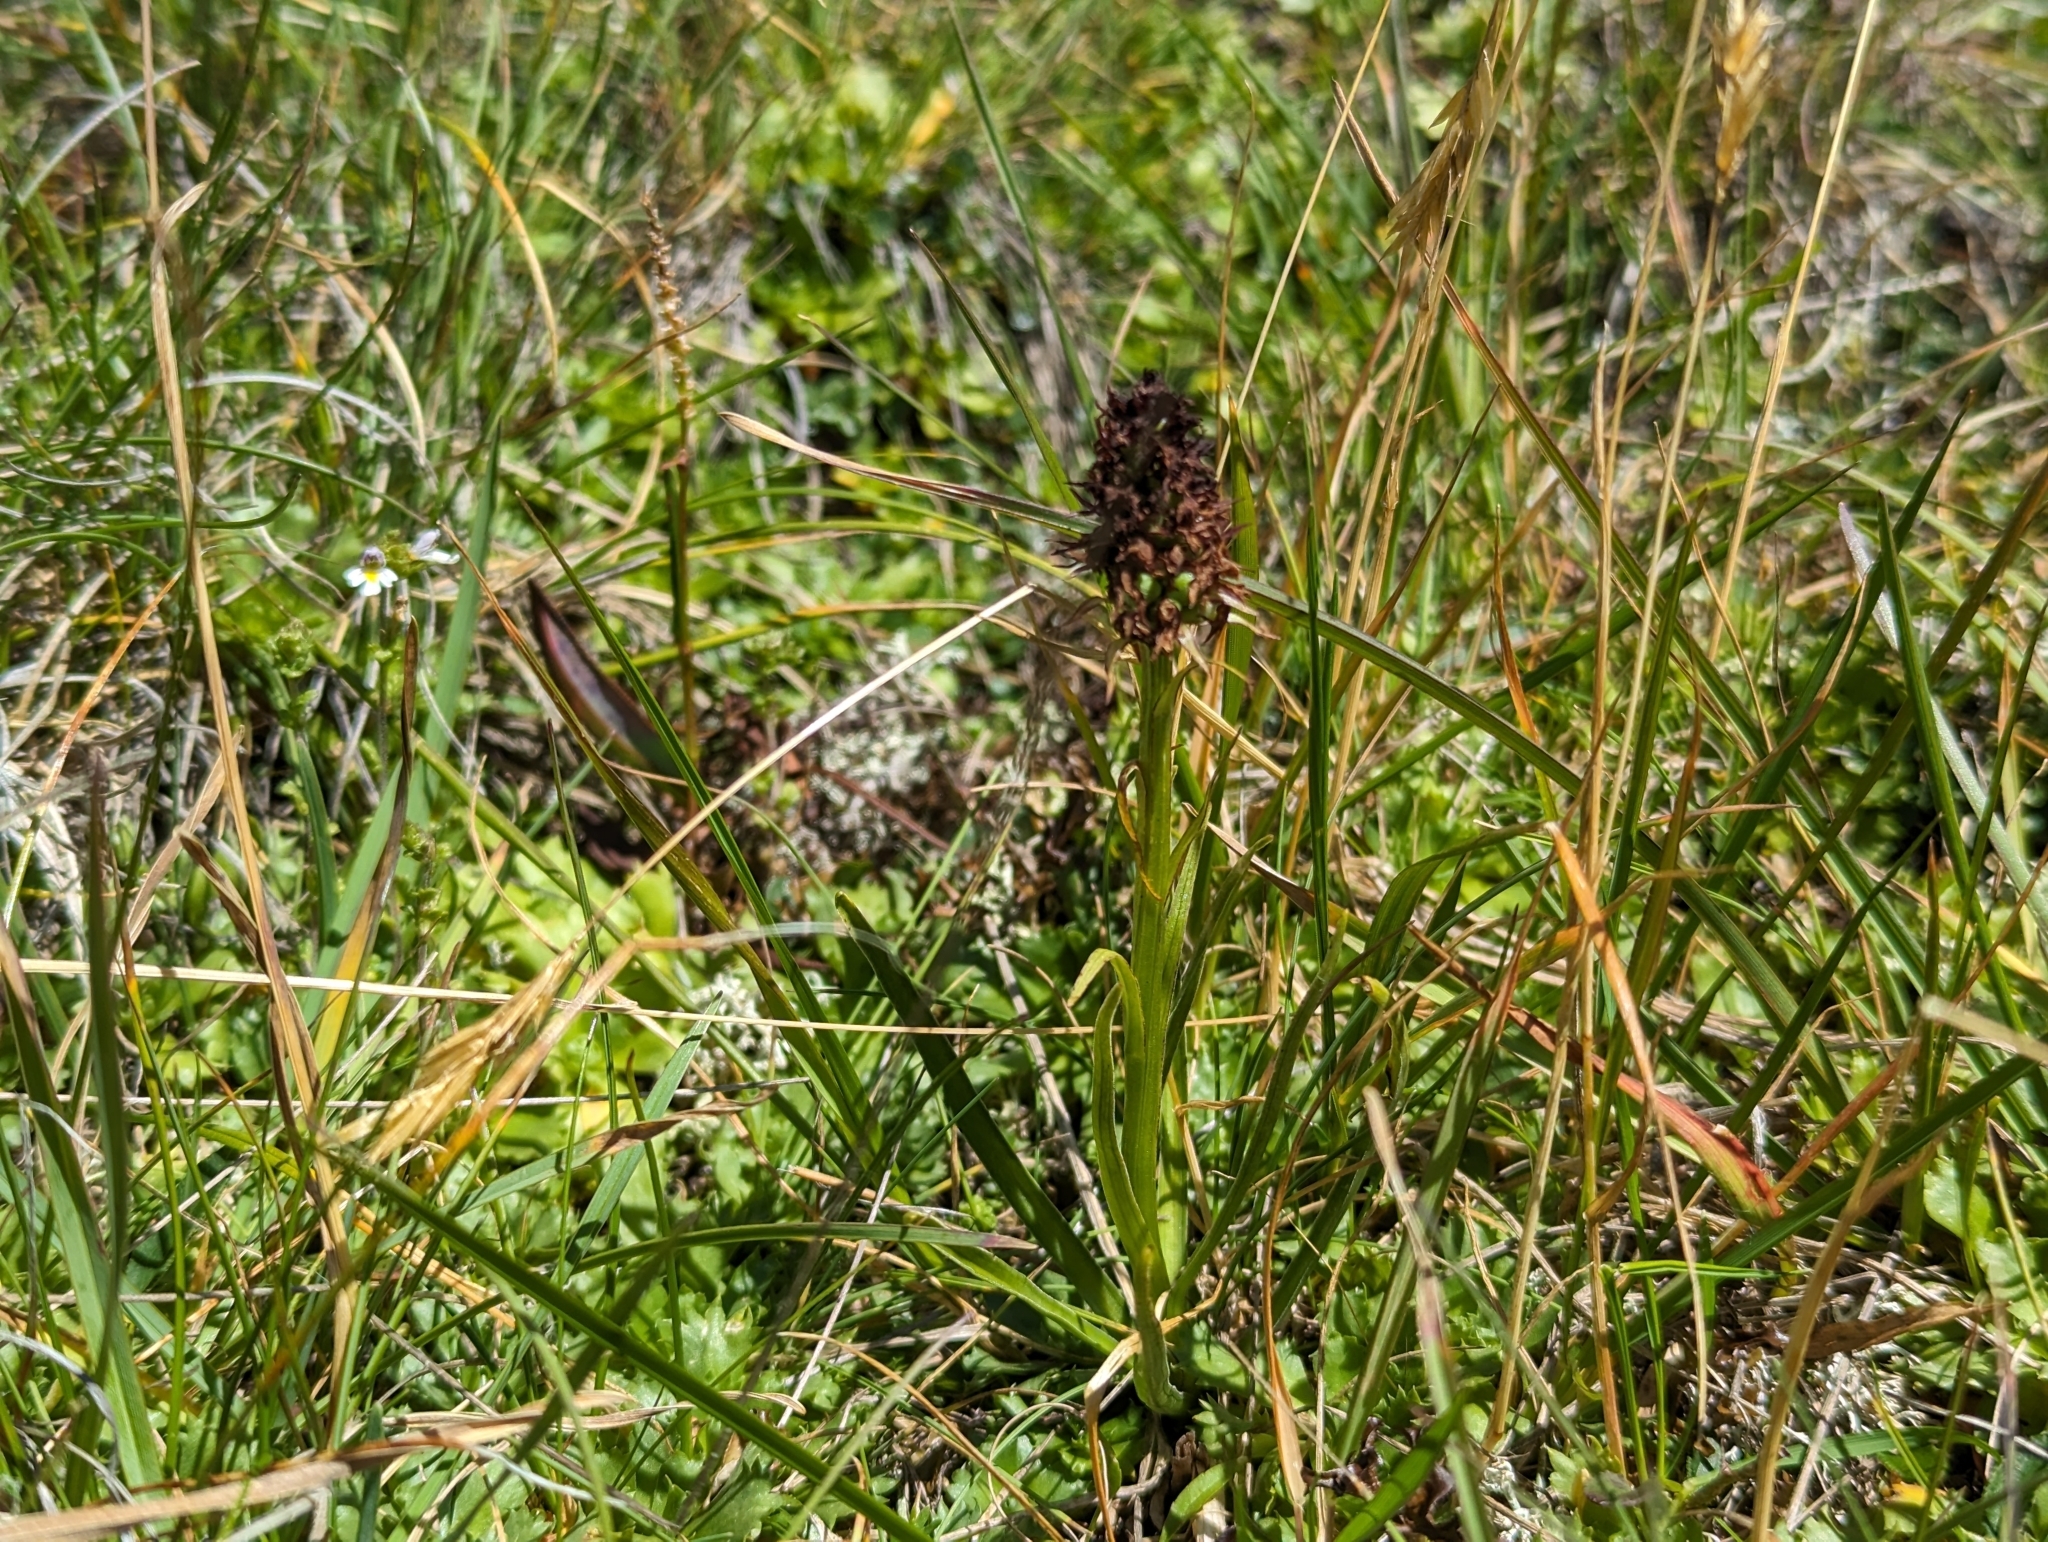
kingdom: Plantae
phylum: Tracheophyta
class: Liliopsida
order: Asparagales
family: Orchidaceae
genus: Gymnadenia
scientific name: Gymnadenia rhellicani
